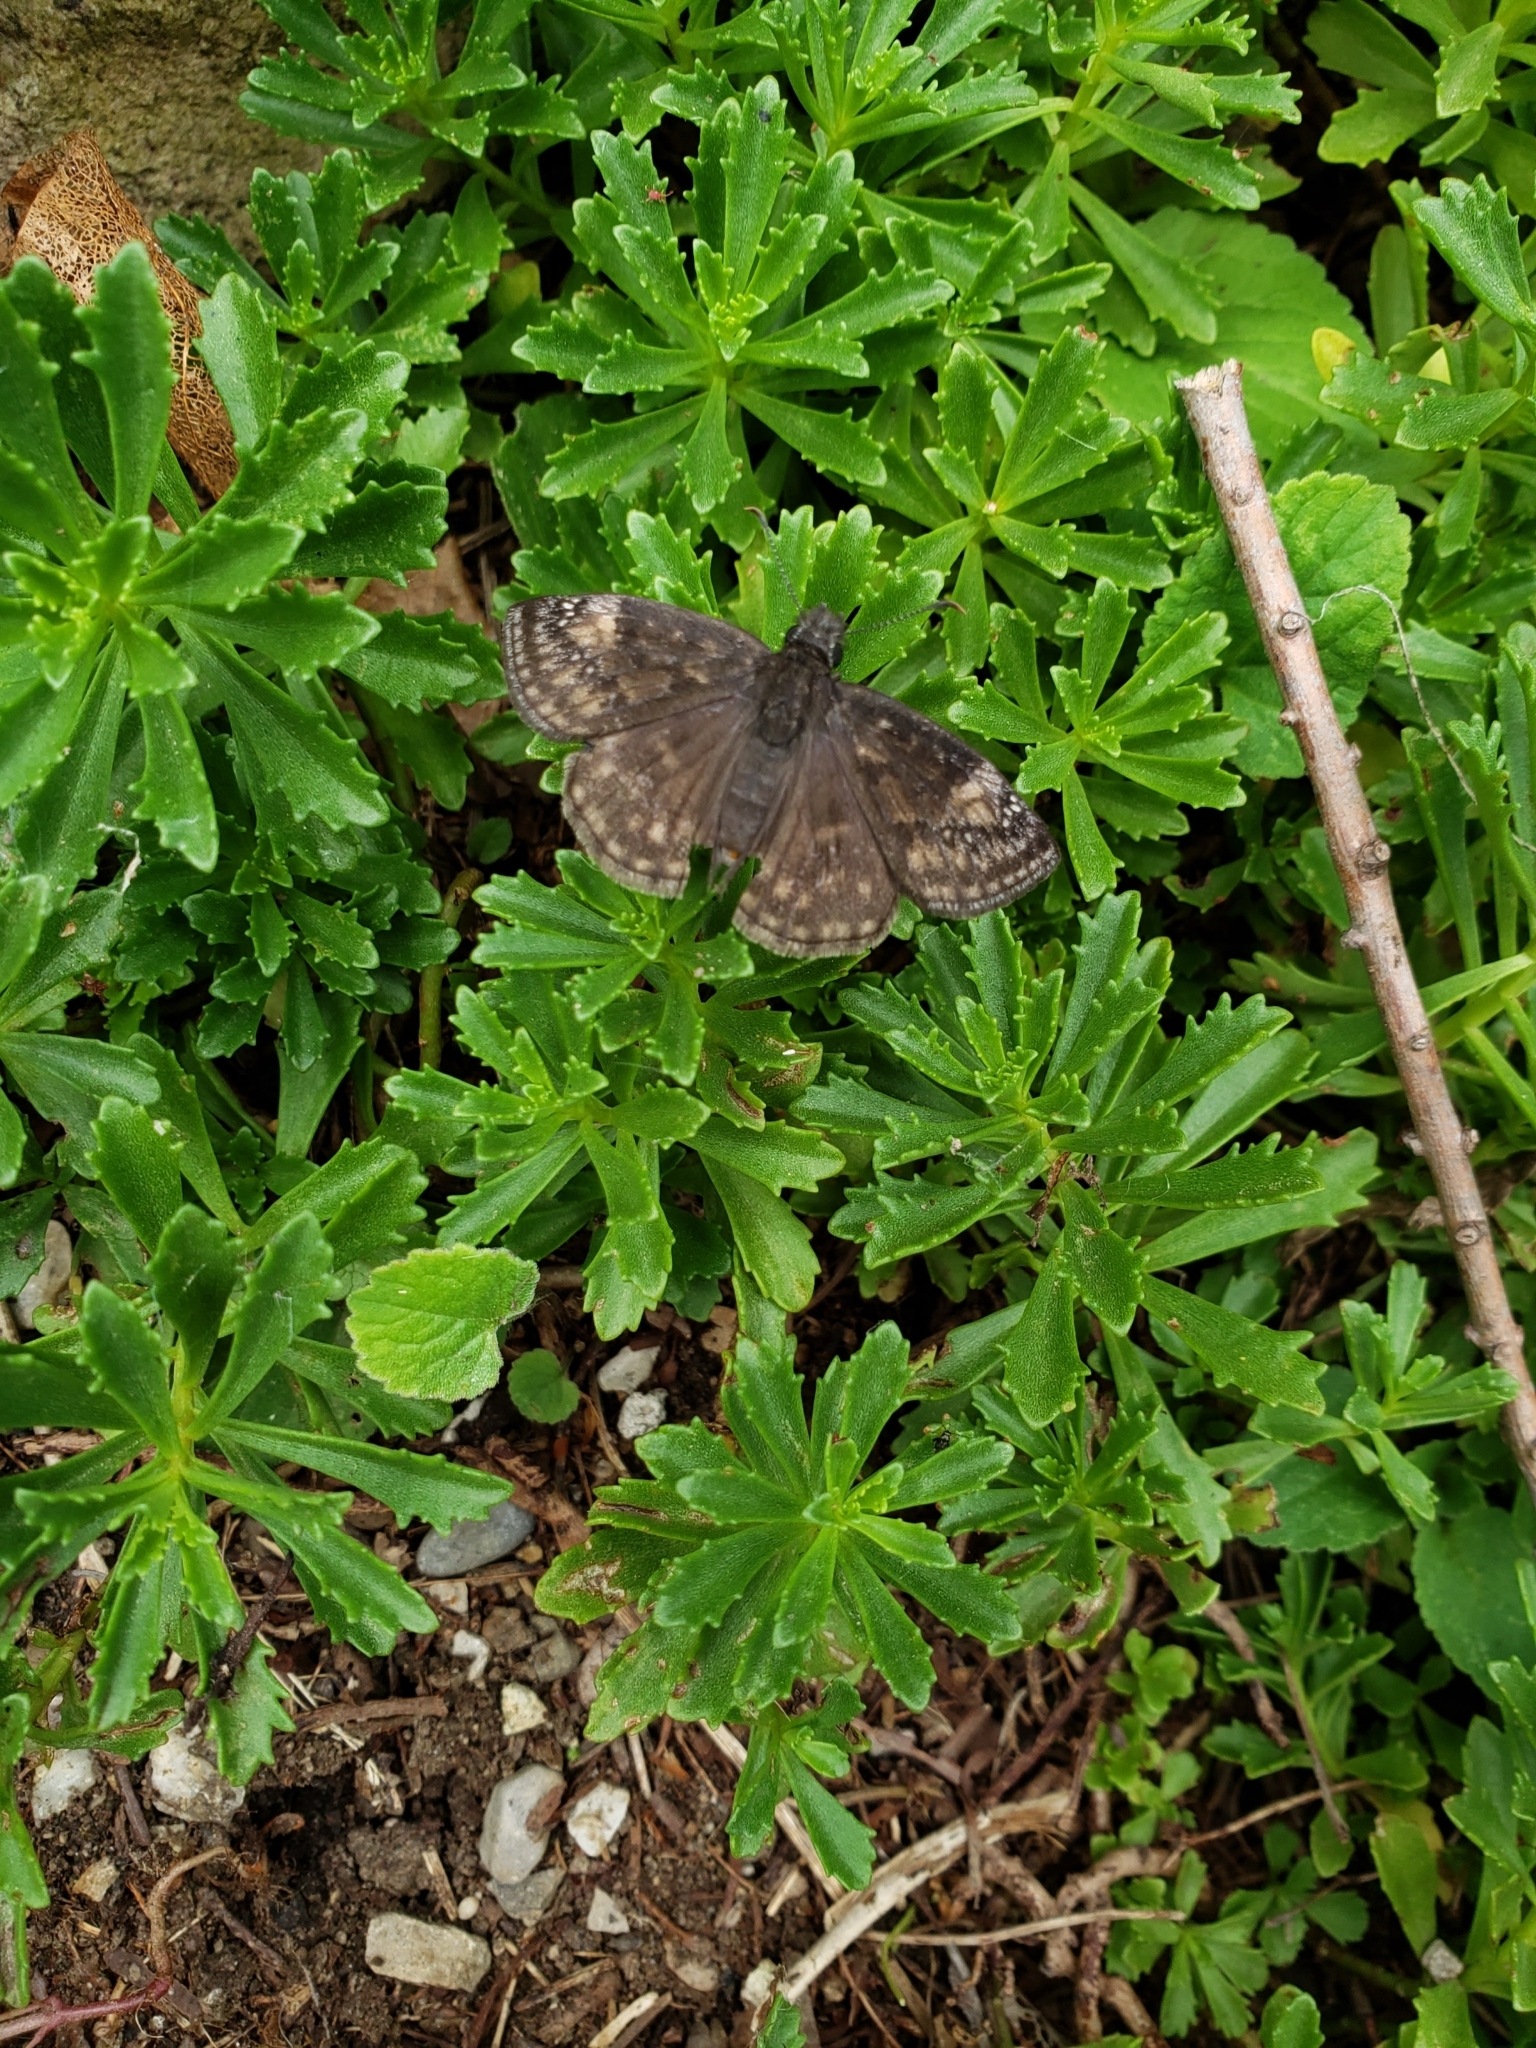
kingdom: Animalia
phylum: Arthropoda
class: Insecta
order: Lepidoptera
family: Hesperiidae
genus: Erynnis
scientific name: Erynnis baptisiae
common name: Wild indigo duskywing
